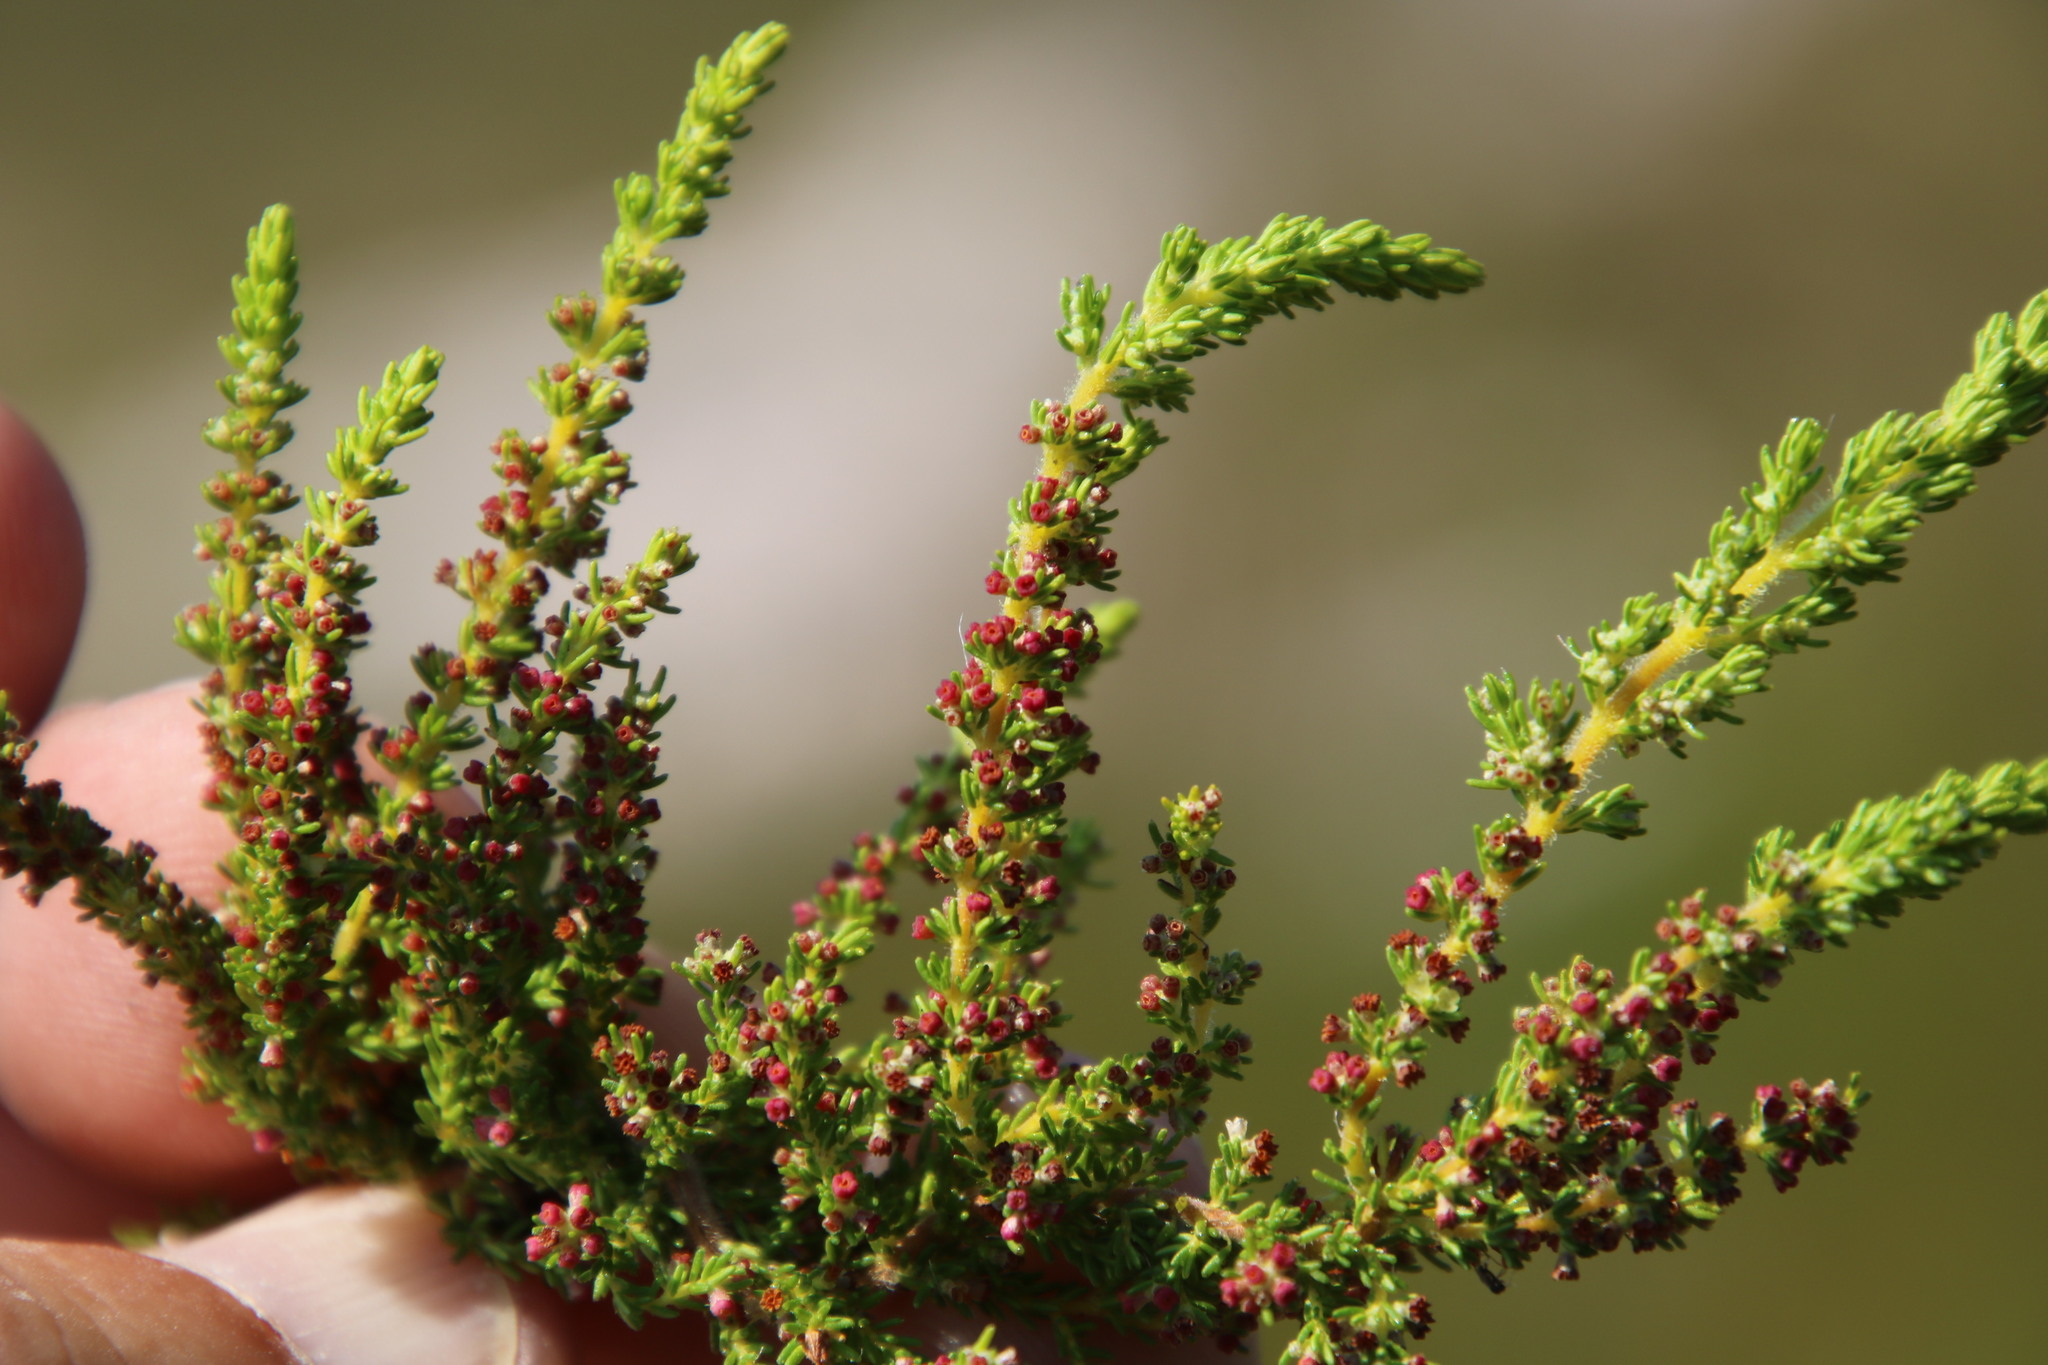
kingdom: Plantae
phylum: Tracheophyta
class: Magnoliopsida
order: Ericales
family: Ericaceae
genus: Erica
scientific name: Erica hispidula
